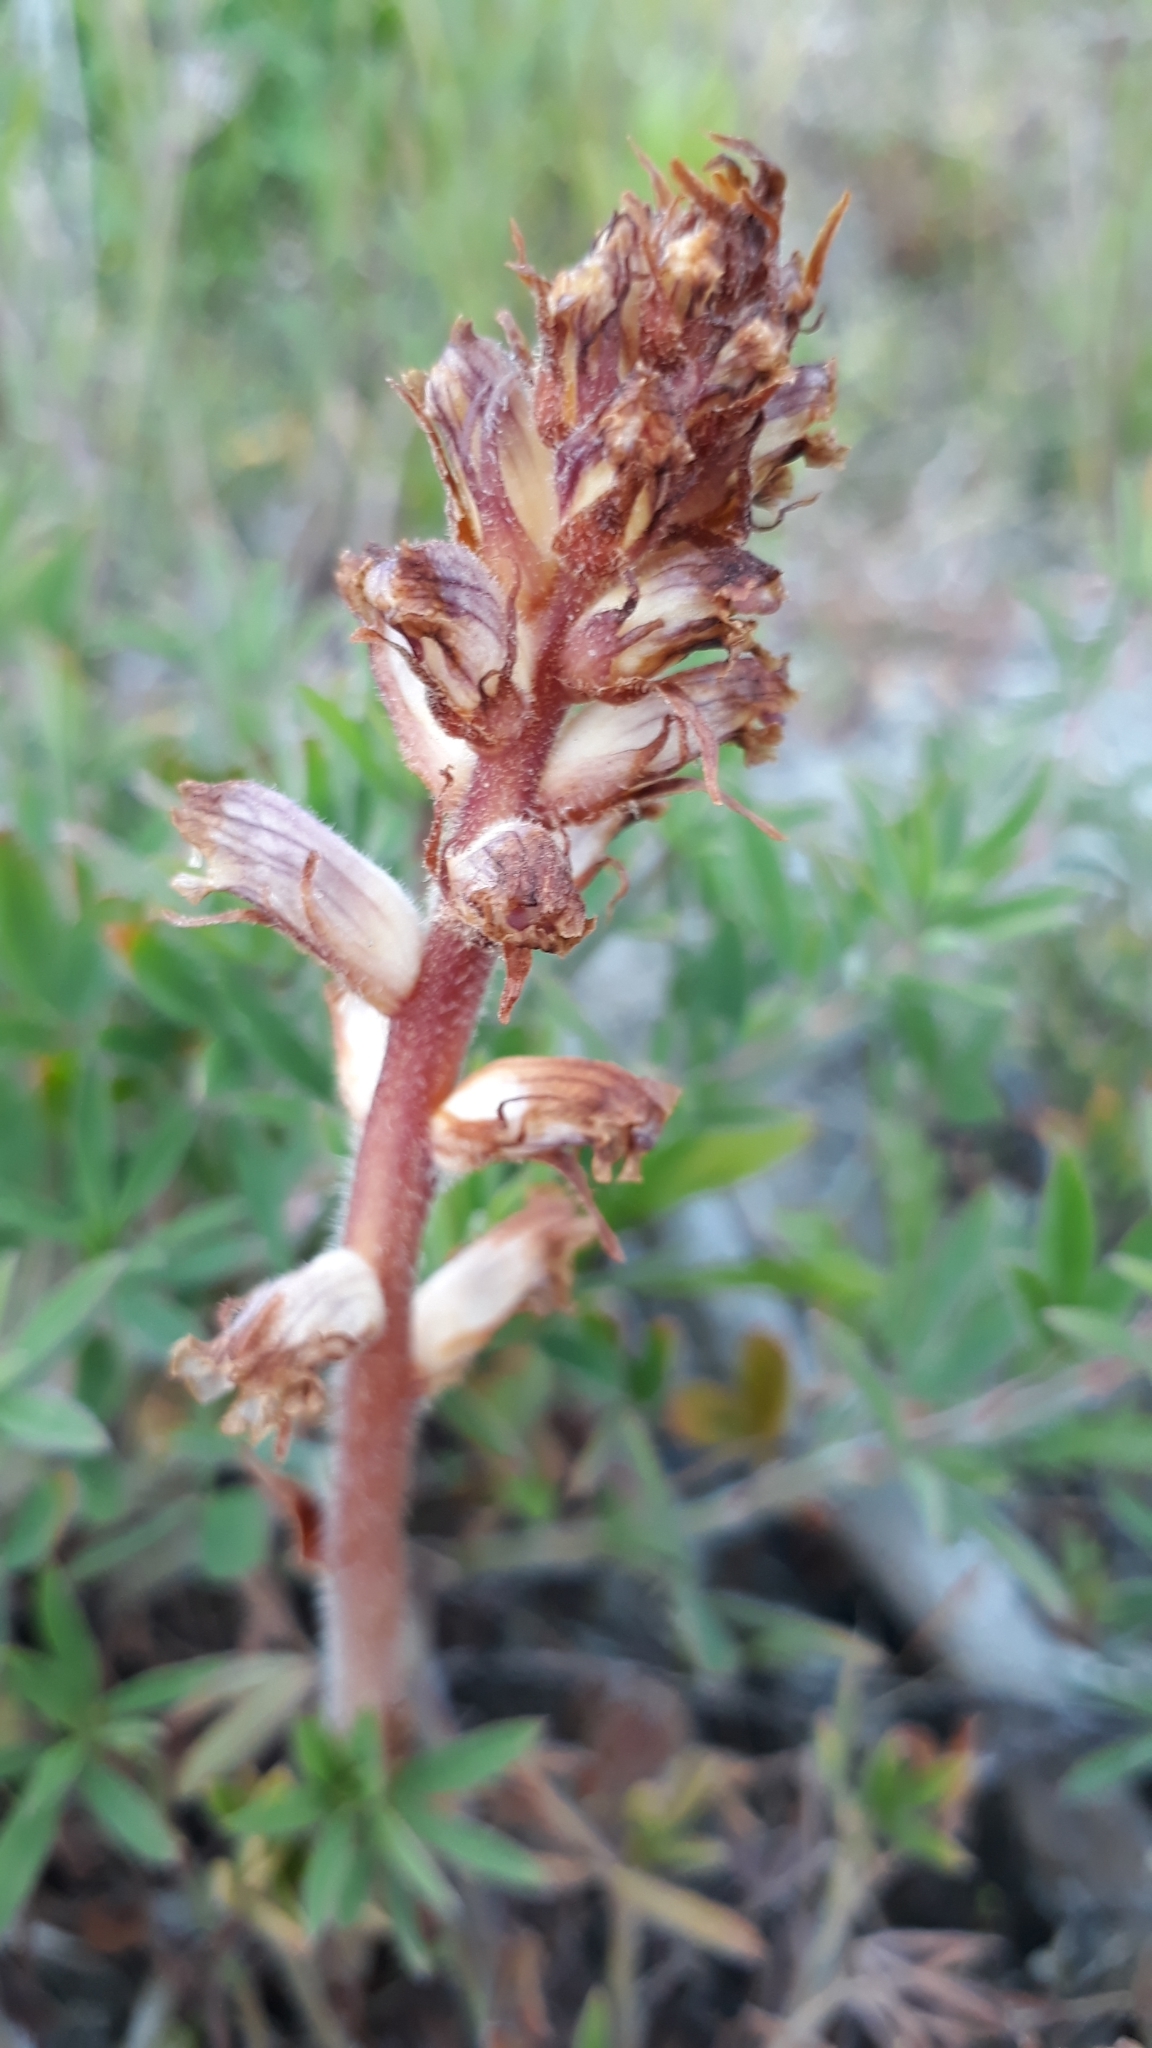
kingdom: Plantae
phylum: Tracheophyta
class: Magnoliopsida
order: Lamiales
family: Orobanchaceae
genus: Orobanche
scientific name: Orobanche minor
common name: Common broomrape
